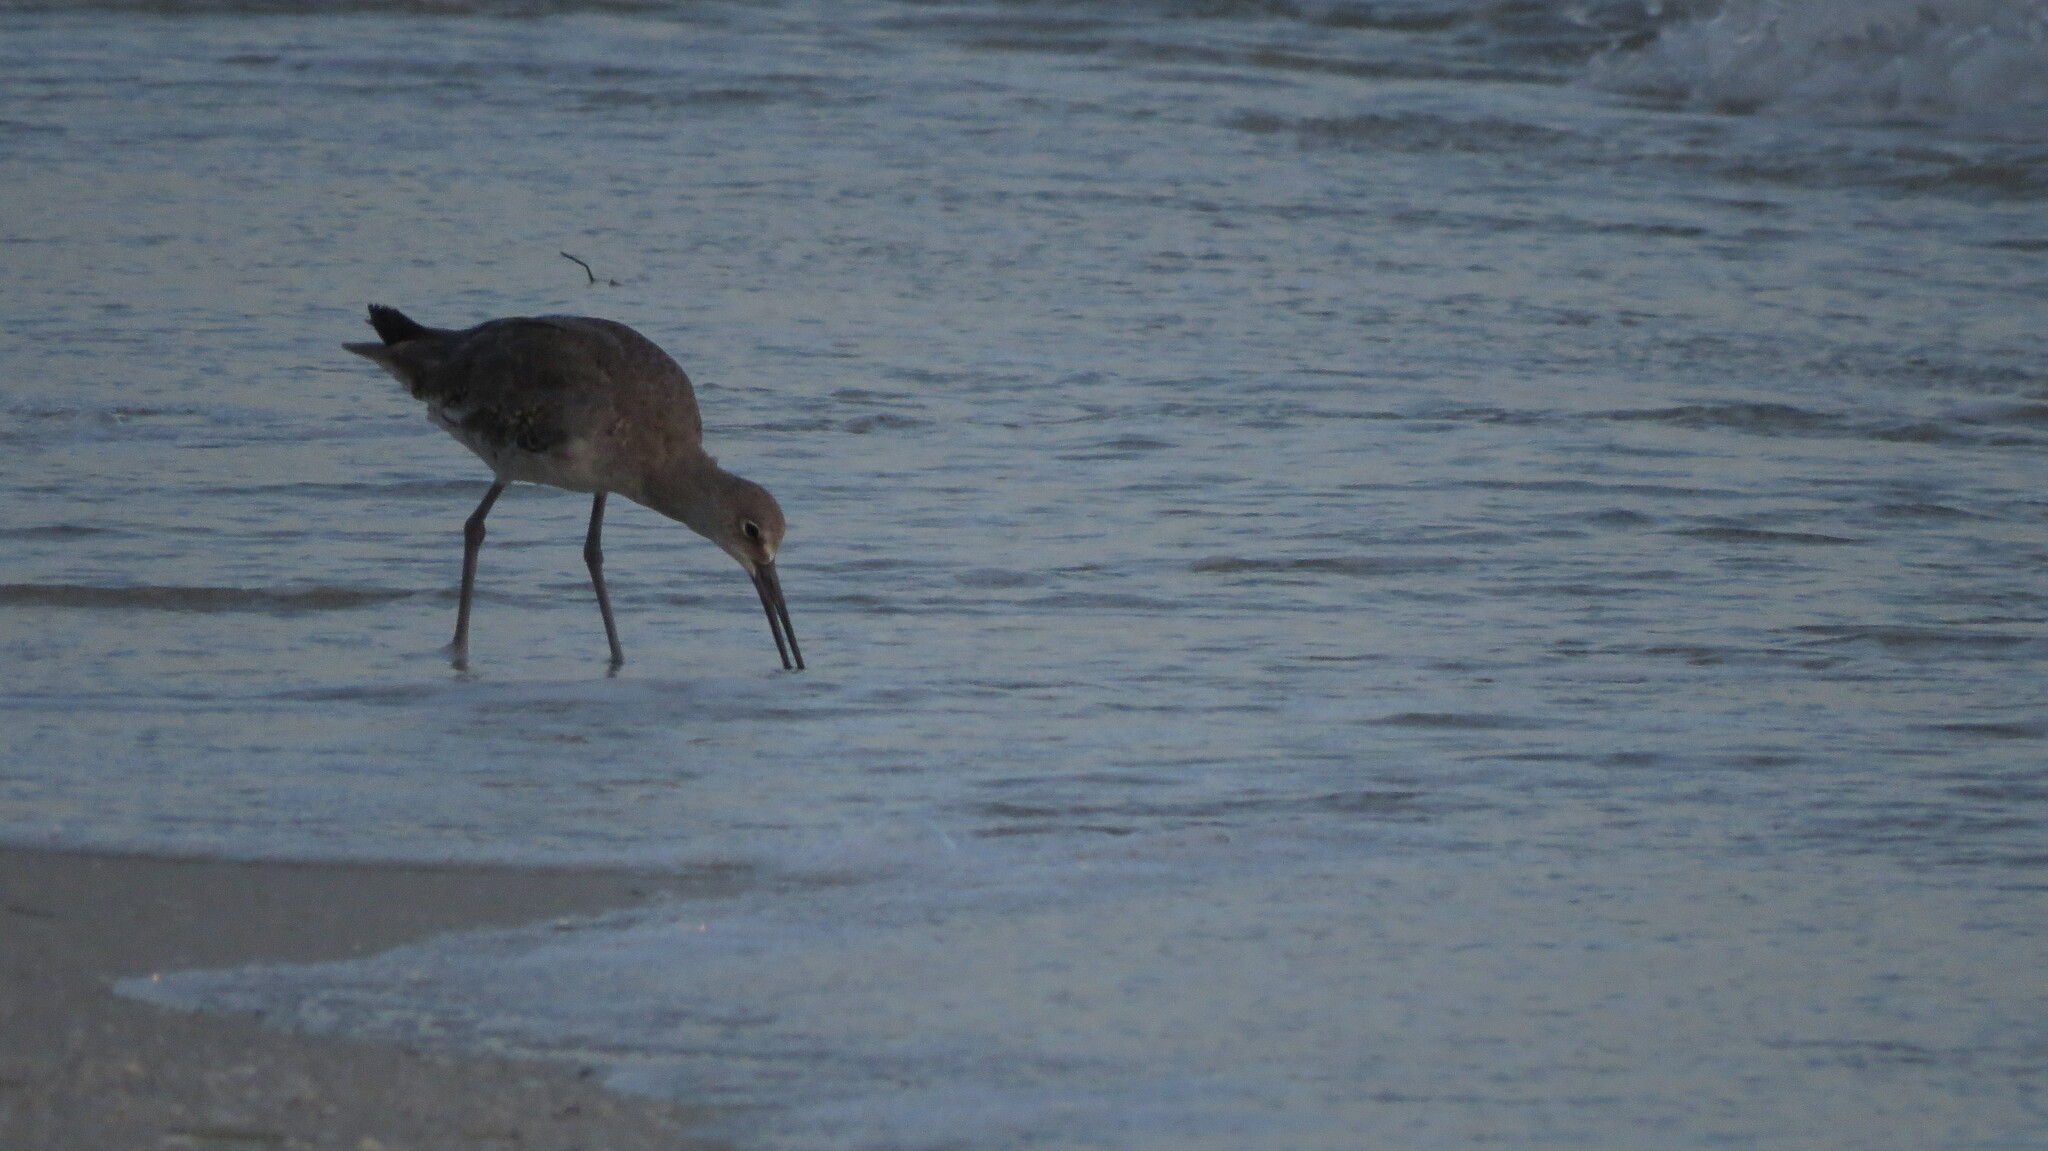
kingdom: Animalia
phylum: Chordata
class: Aves
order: Charadriiformes
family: Scolopacidae
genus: Tringa
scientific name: Tringa semipalmata
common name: Willet
